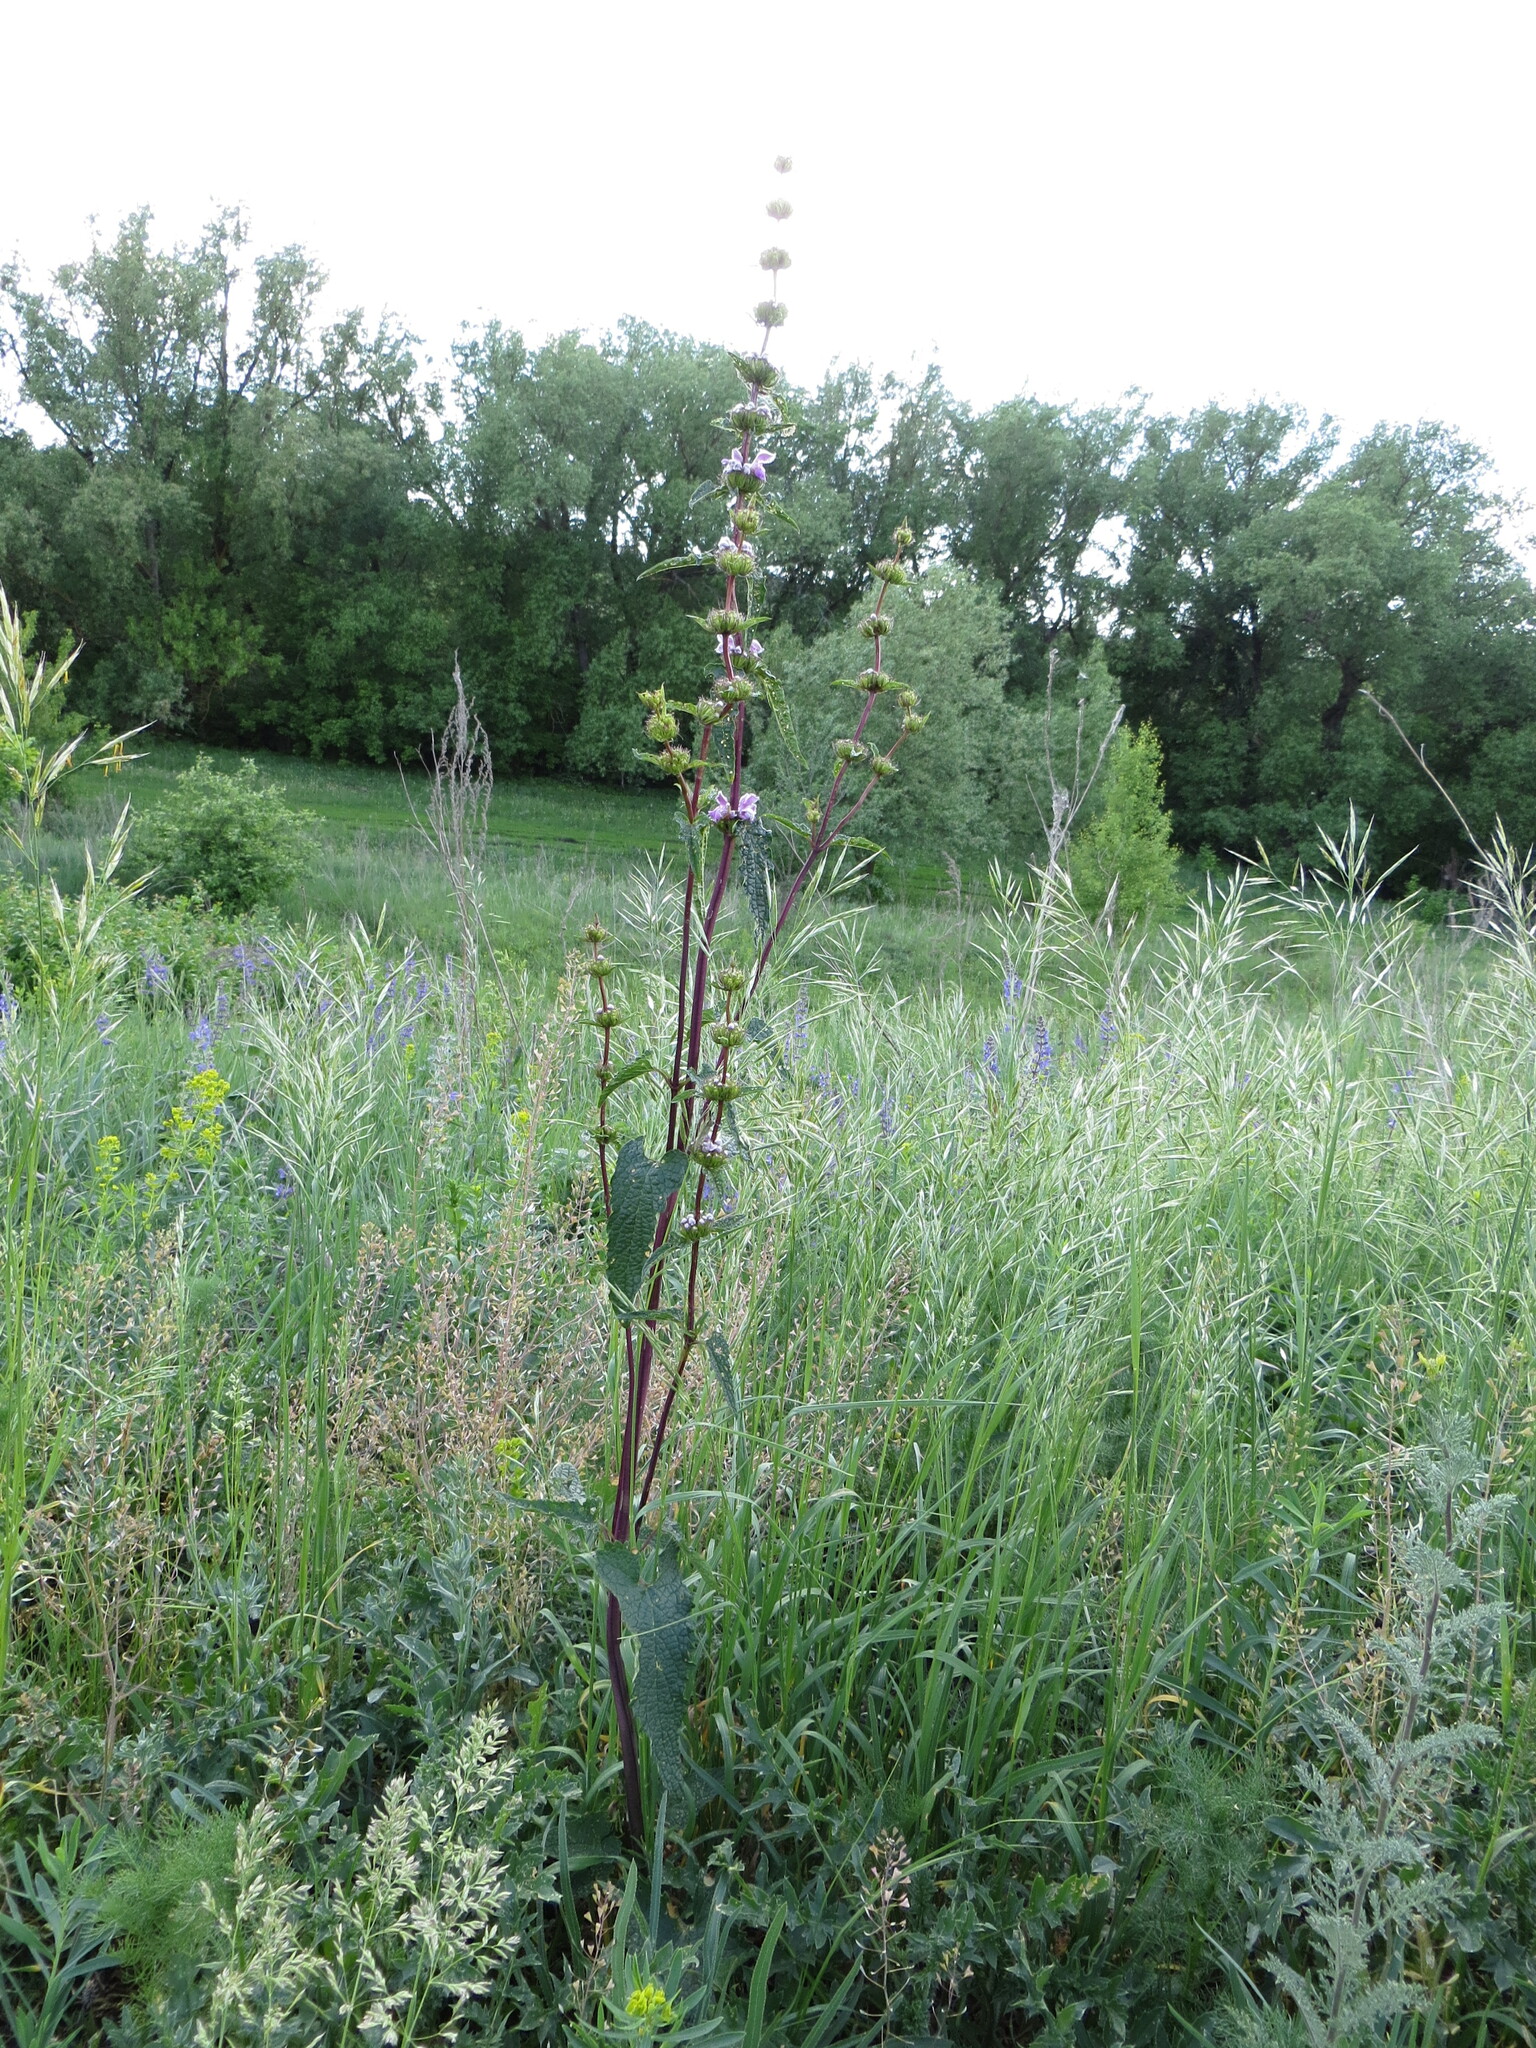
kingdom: Plantae
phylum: Tracheophyta
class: Magnoliopsida
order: Lamiales
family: Lamiaceae
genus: Phlomoides
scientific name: Phlomoides tuberosa
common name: Tuberous jerusalem sage
